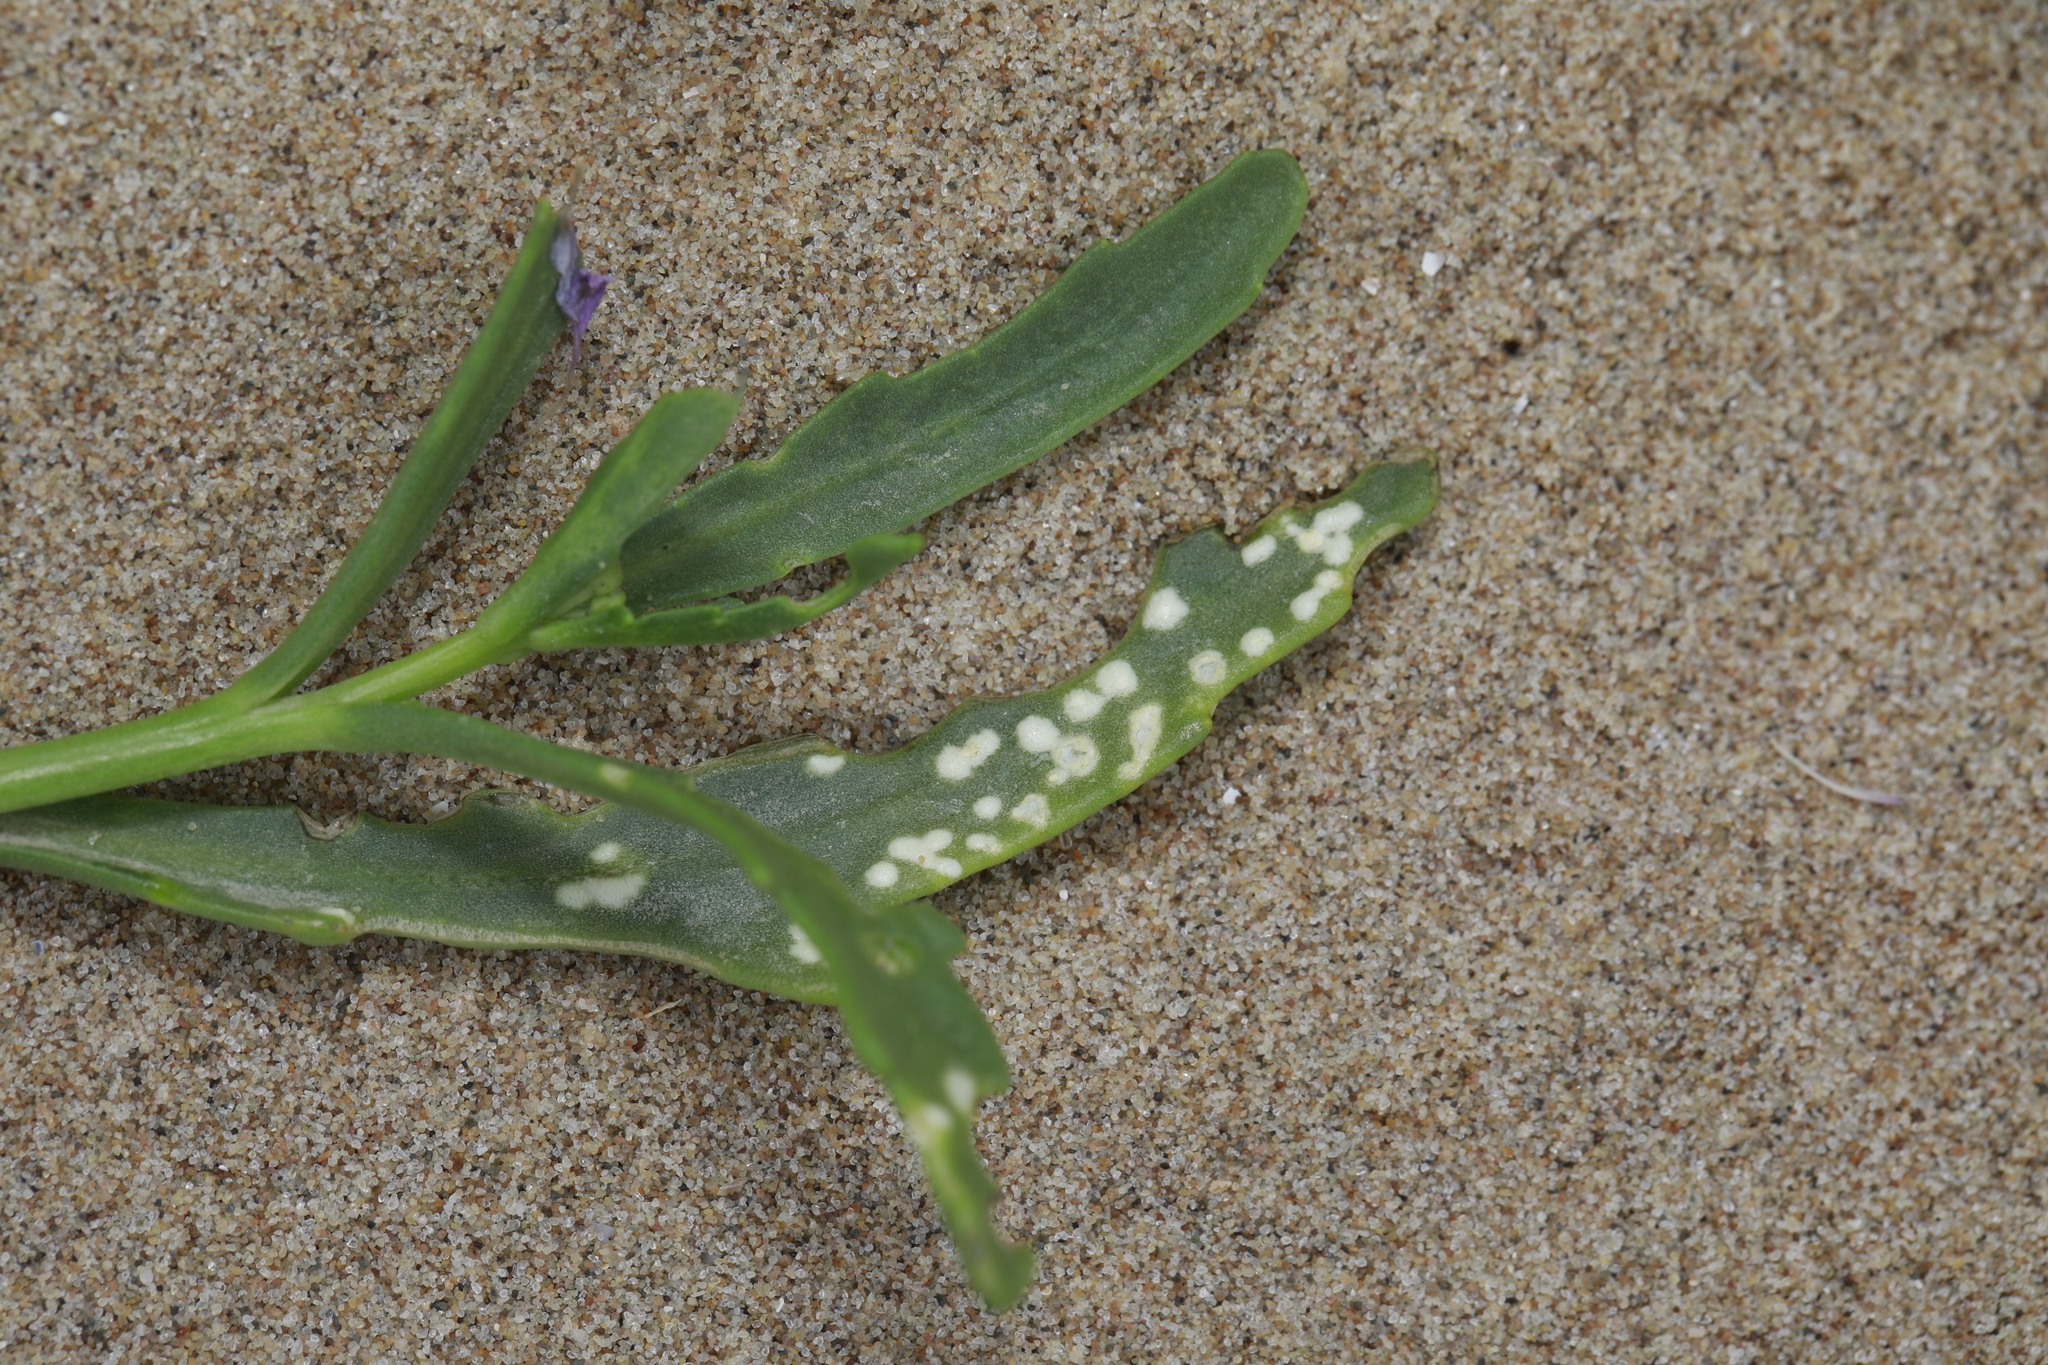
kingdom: Chromista
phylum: Oomycota
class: Peronosporea
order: Albuginales
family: Albuginaceae
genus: Albugo
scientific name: Albugo candida
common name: Crucifer white blister
